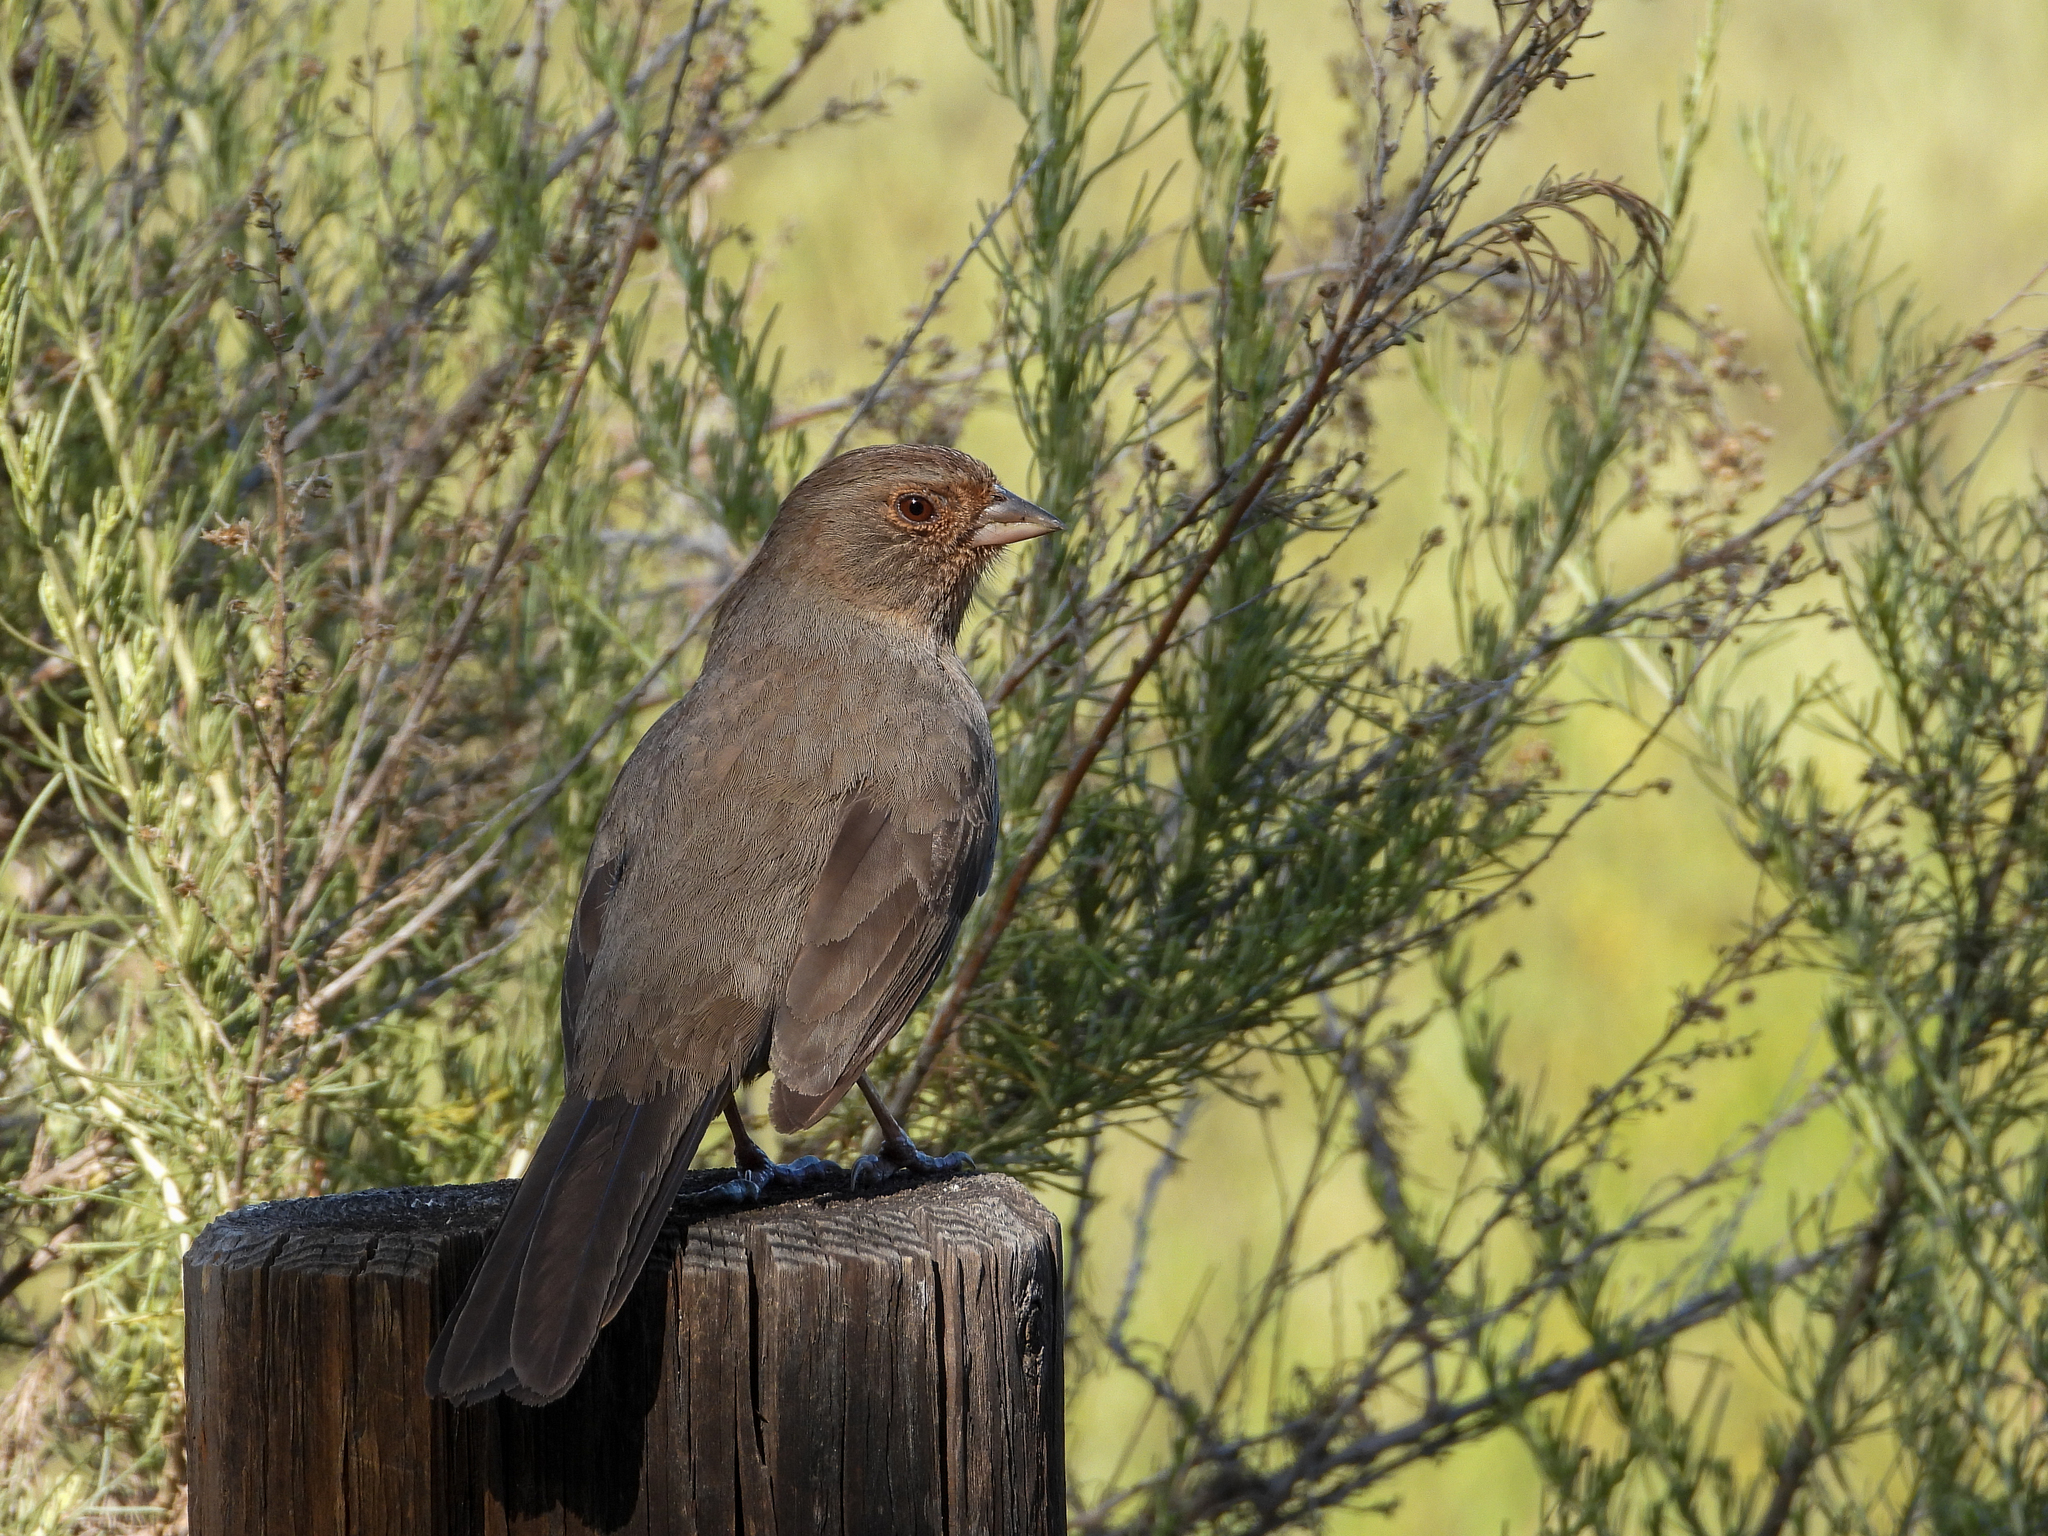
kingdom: Animalia
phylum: Chordata
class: Aves
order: Passeriformes
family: Passerellidae
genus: Melozone
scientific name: Melozone crissalis
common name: California towhee
